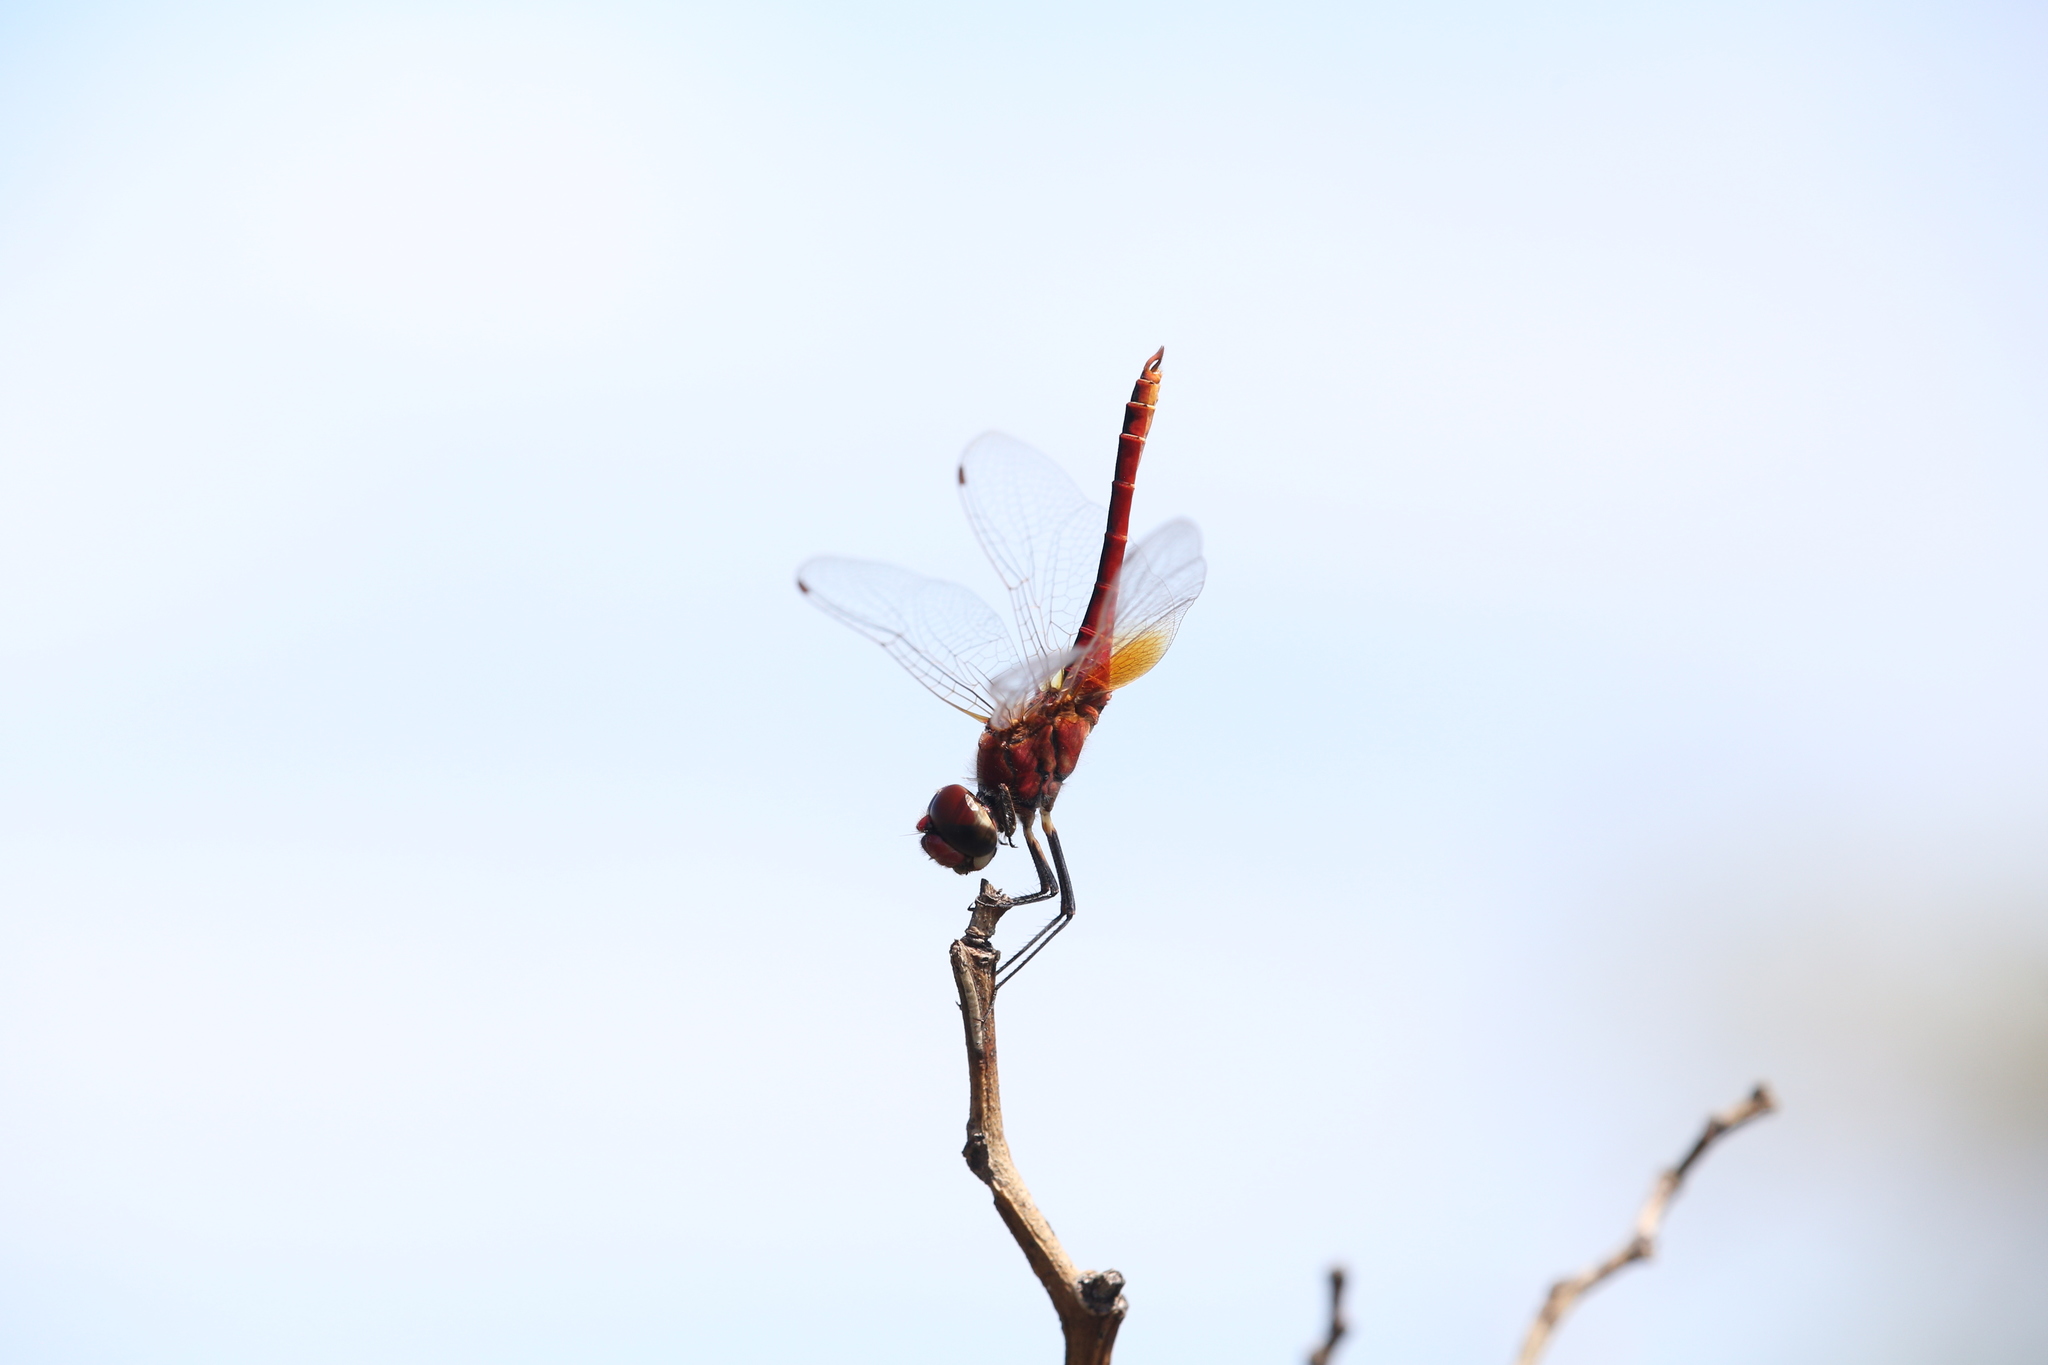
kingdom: Animalia
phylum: Arthropoda
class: Insecta
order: Odonata
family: Libellulidae
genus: Macrodiplax
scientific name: Macrodiplax cora
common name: Coastal glider
